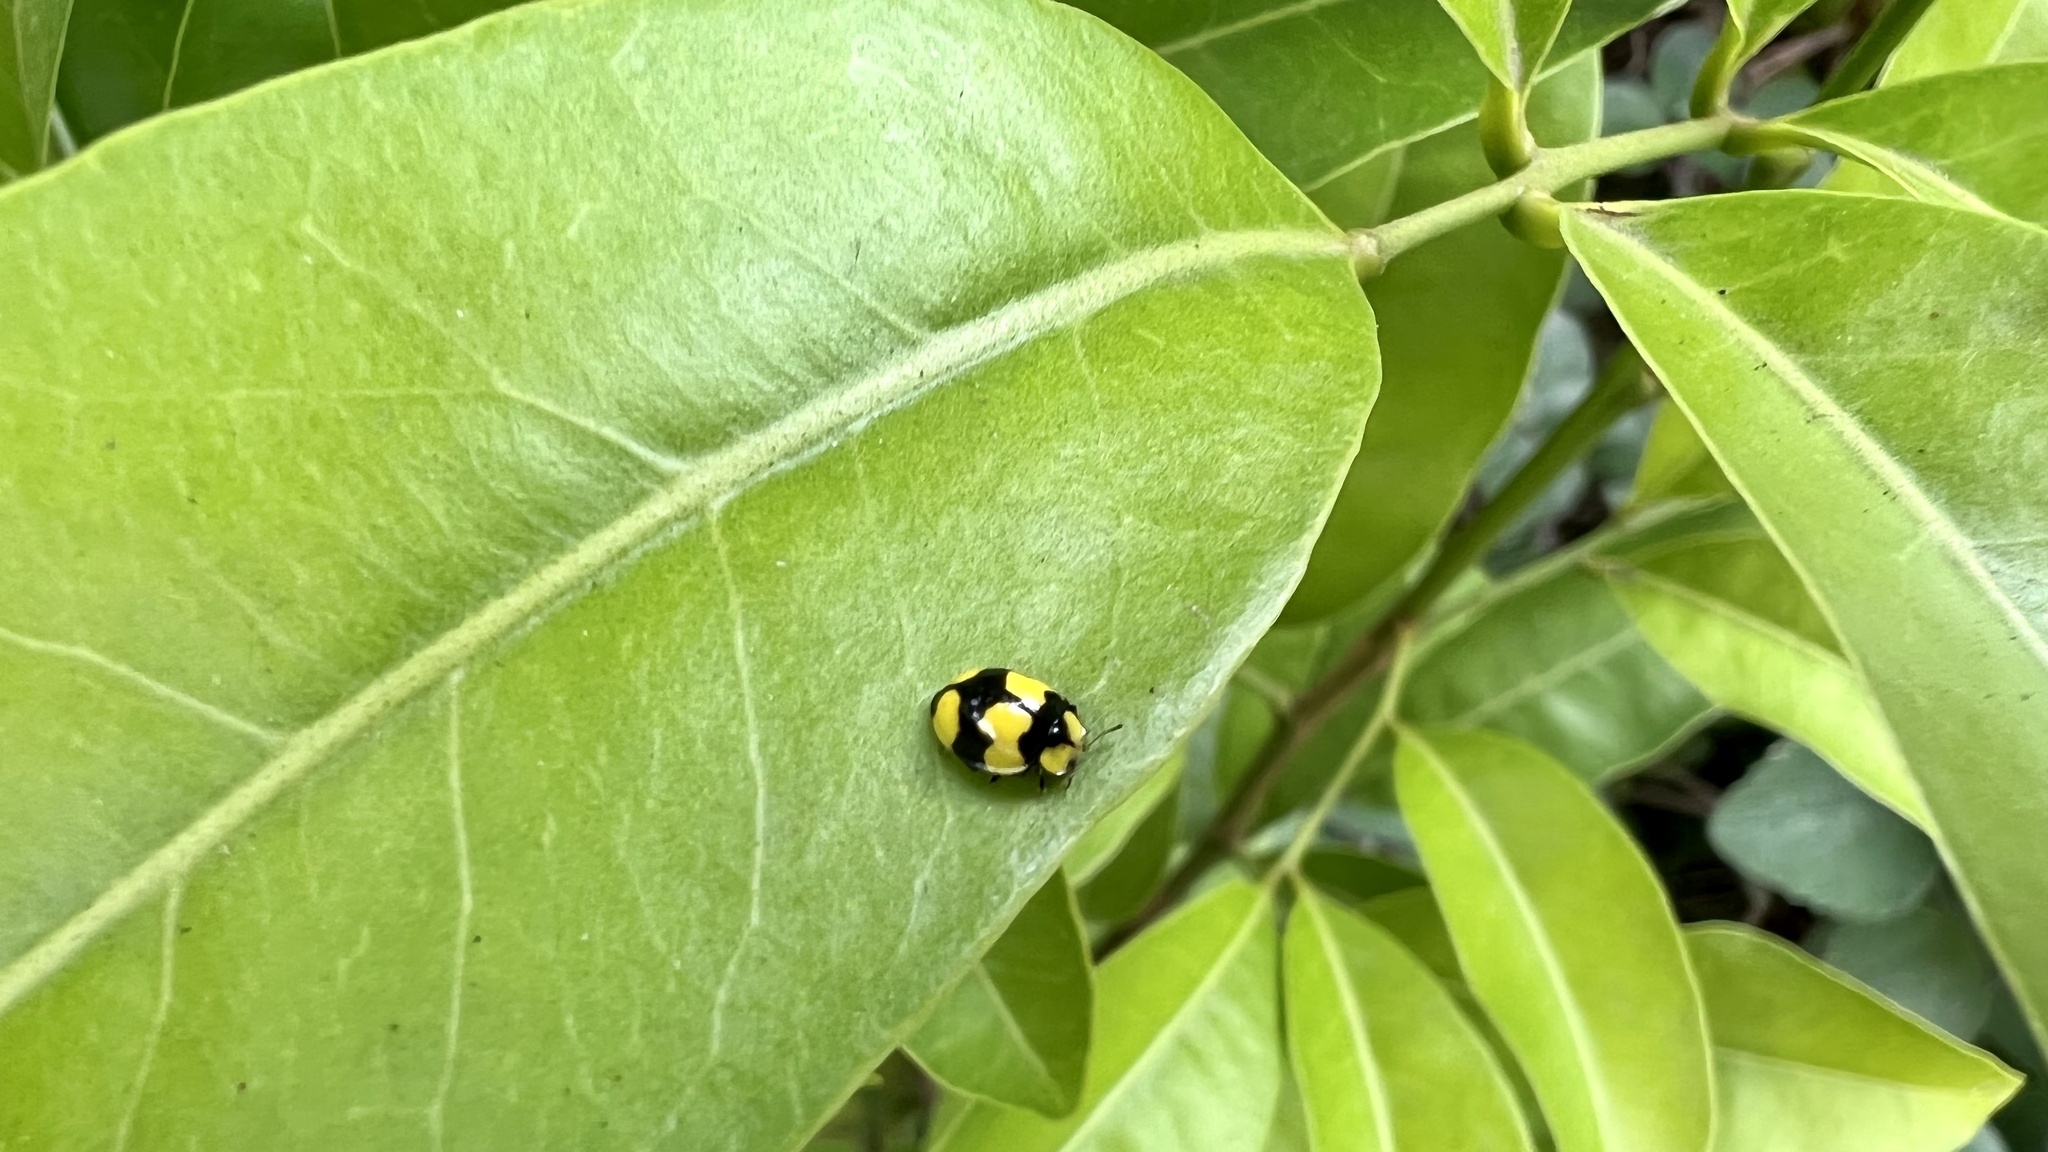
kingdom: Animalia
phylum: Arthropoda
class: Insecta
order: Coleoptera
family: Coccinellidae
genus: Illeis
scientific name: Illeis galbula
